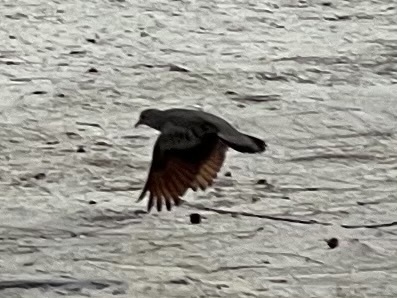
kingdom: Animalia
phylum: Chordata
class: Aves
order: Columbiformes
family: Columbidae
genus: Columbina
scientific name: Columbina passerina
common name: Common ground-dove
